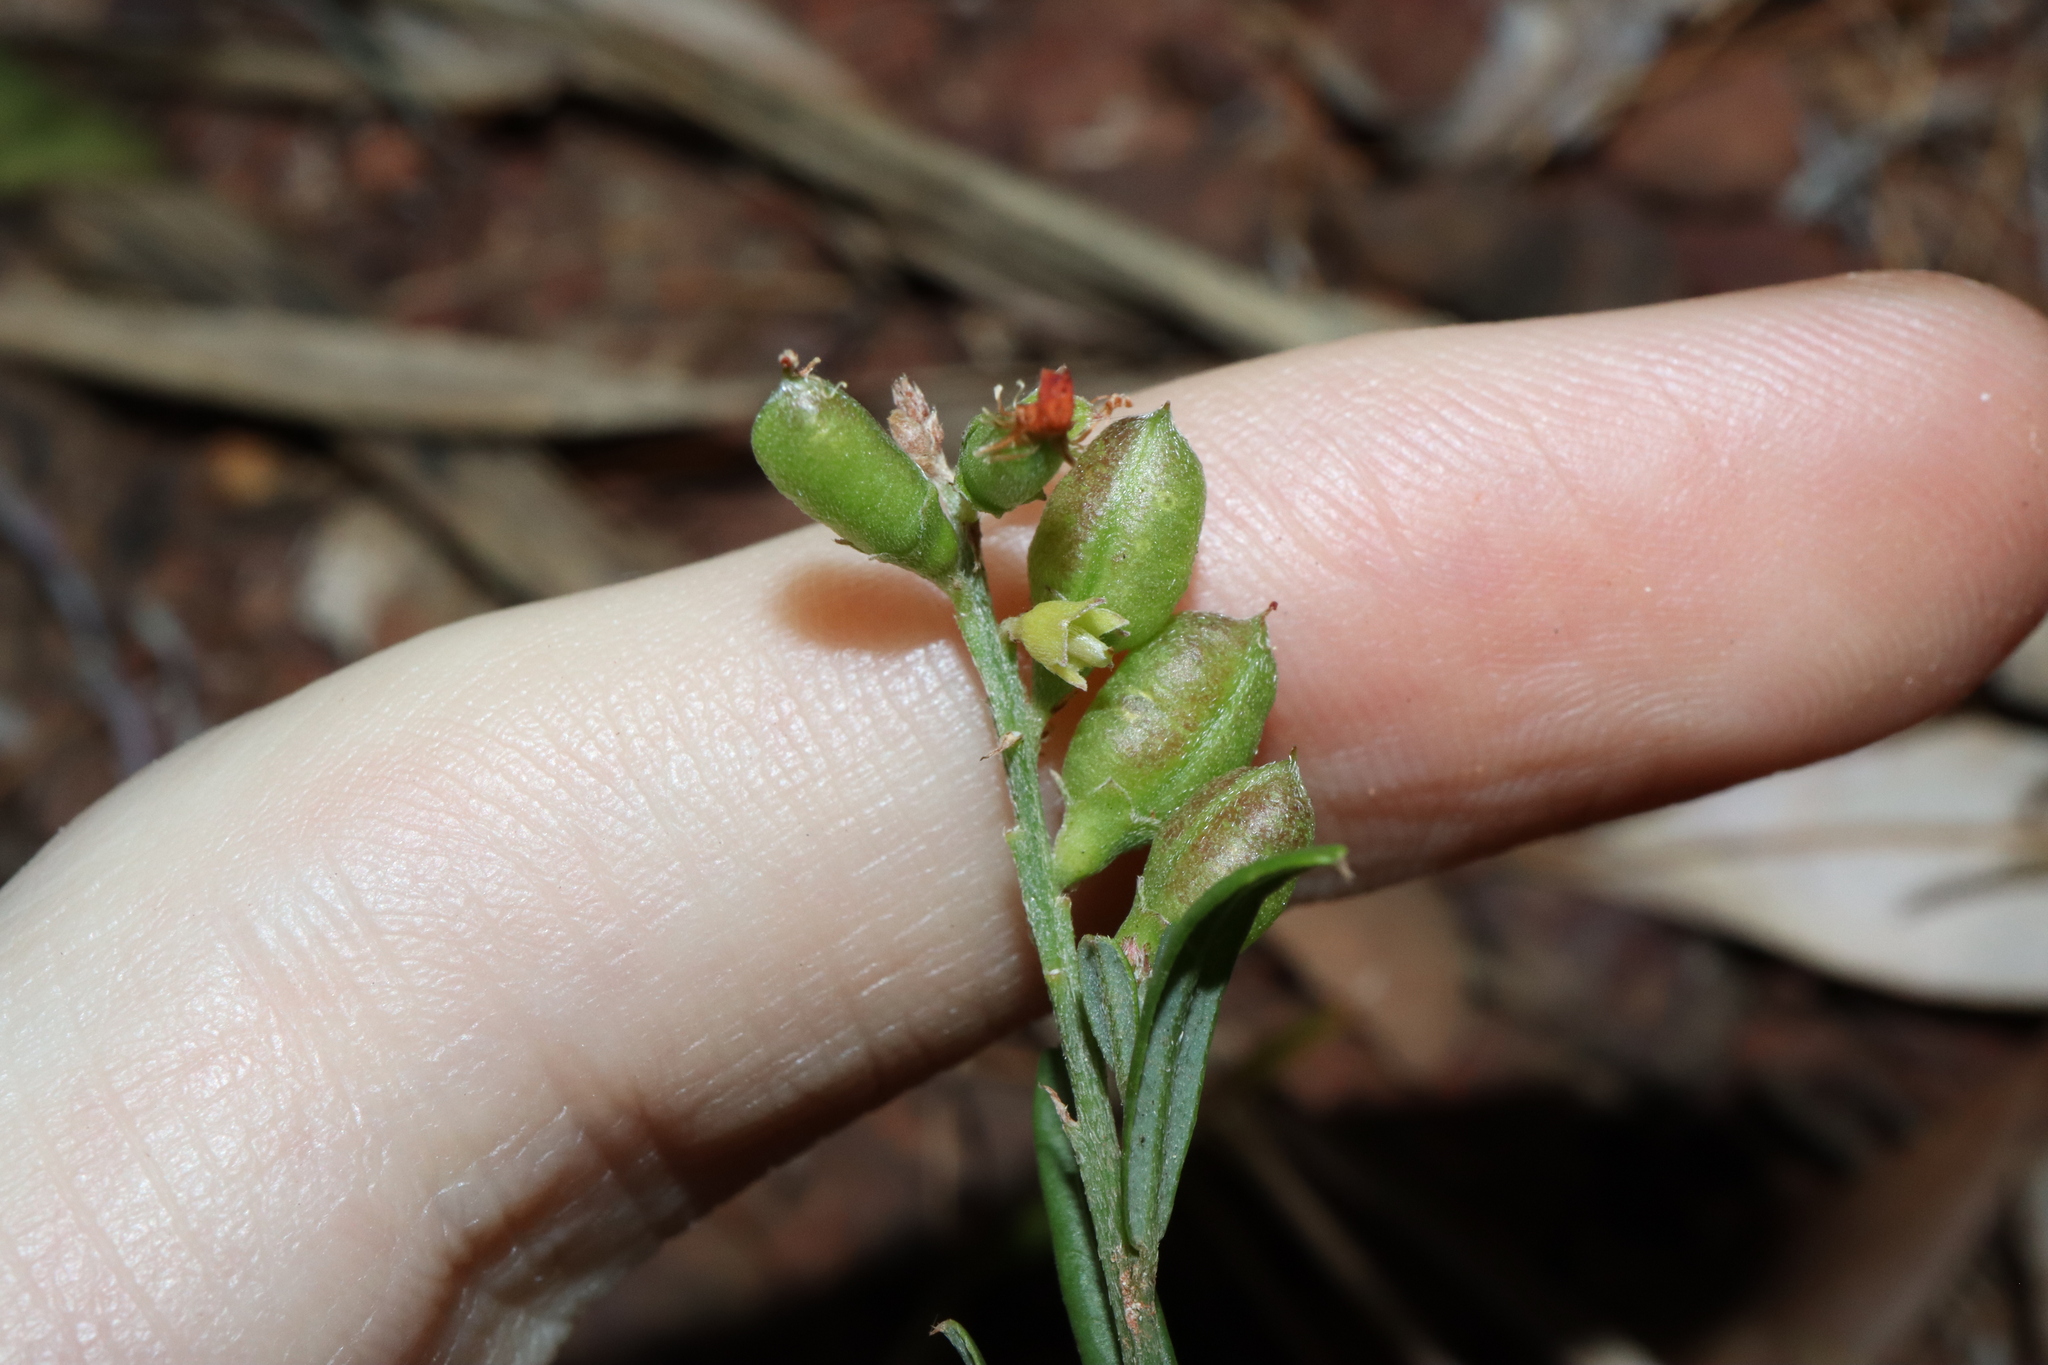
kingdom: Plantae
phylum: Tracheophyta
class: Magnoliopsida
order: Fabales
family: Fabaceae
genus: Chorizema
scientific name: Chorizema parviflorum
